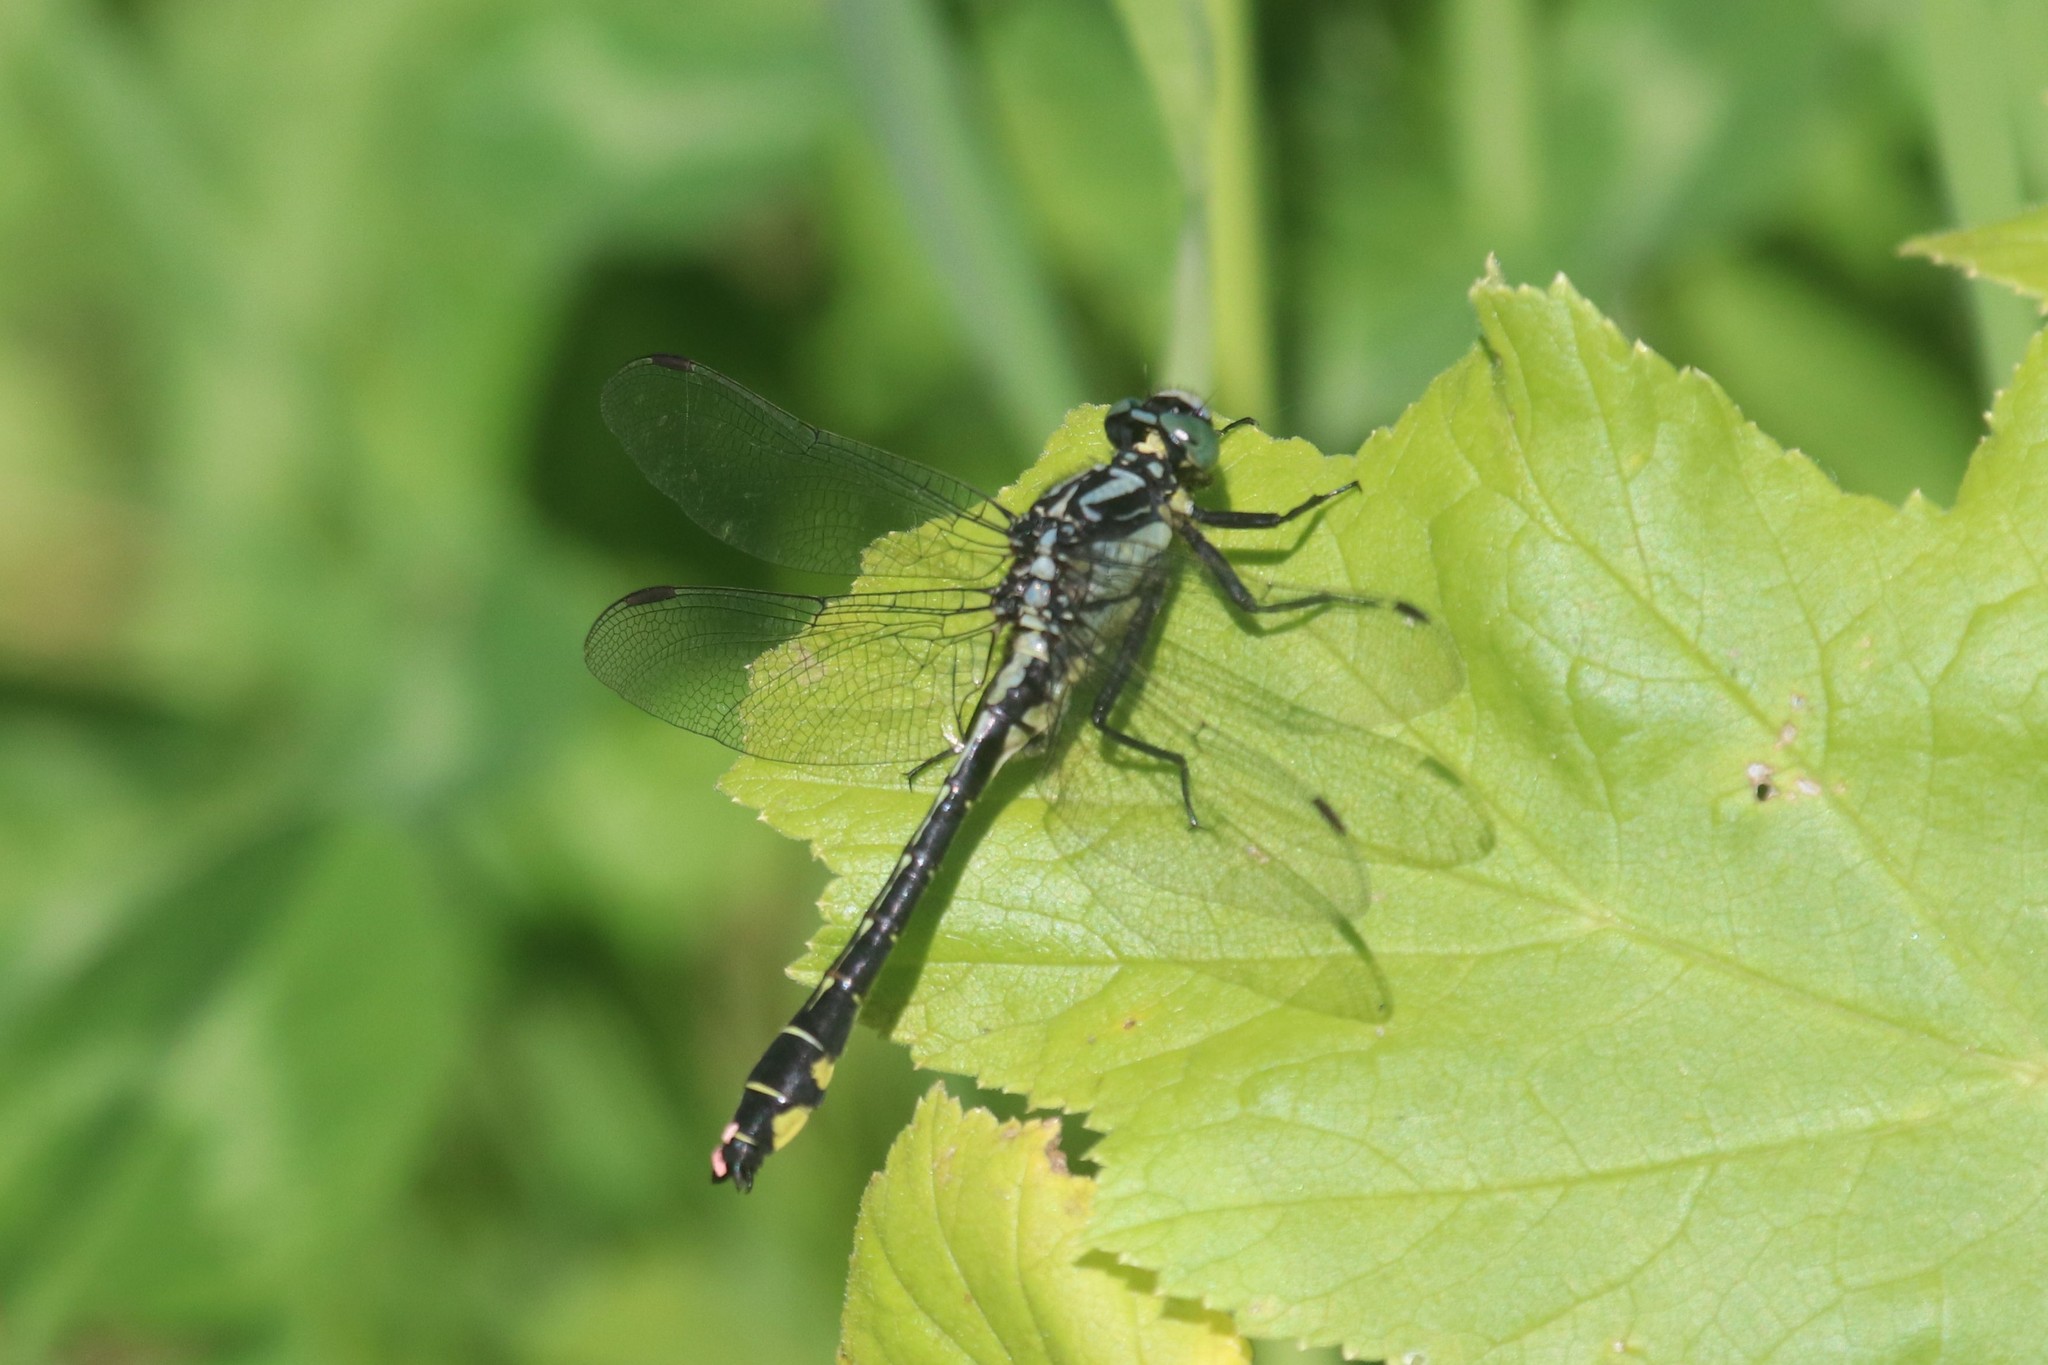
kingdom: Animalia
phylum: Arthropoda
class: Insecta
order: Odonata
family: Gomphidae
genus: Gomphus
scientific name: Gomphus vulgatissimus
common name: Club-tailed dragonfly
